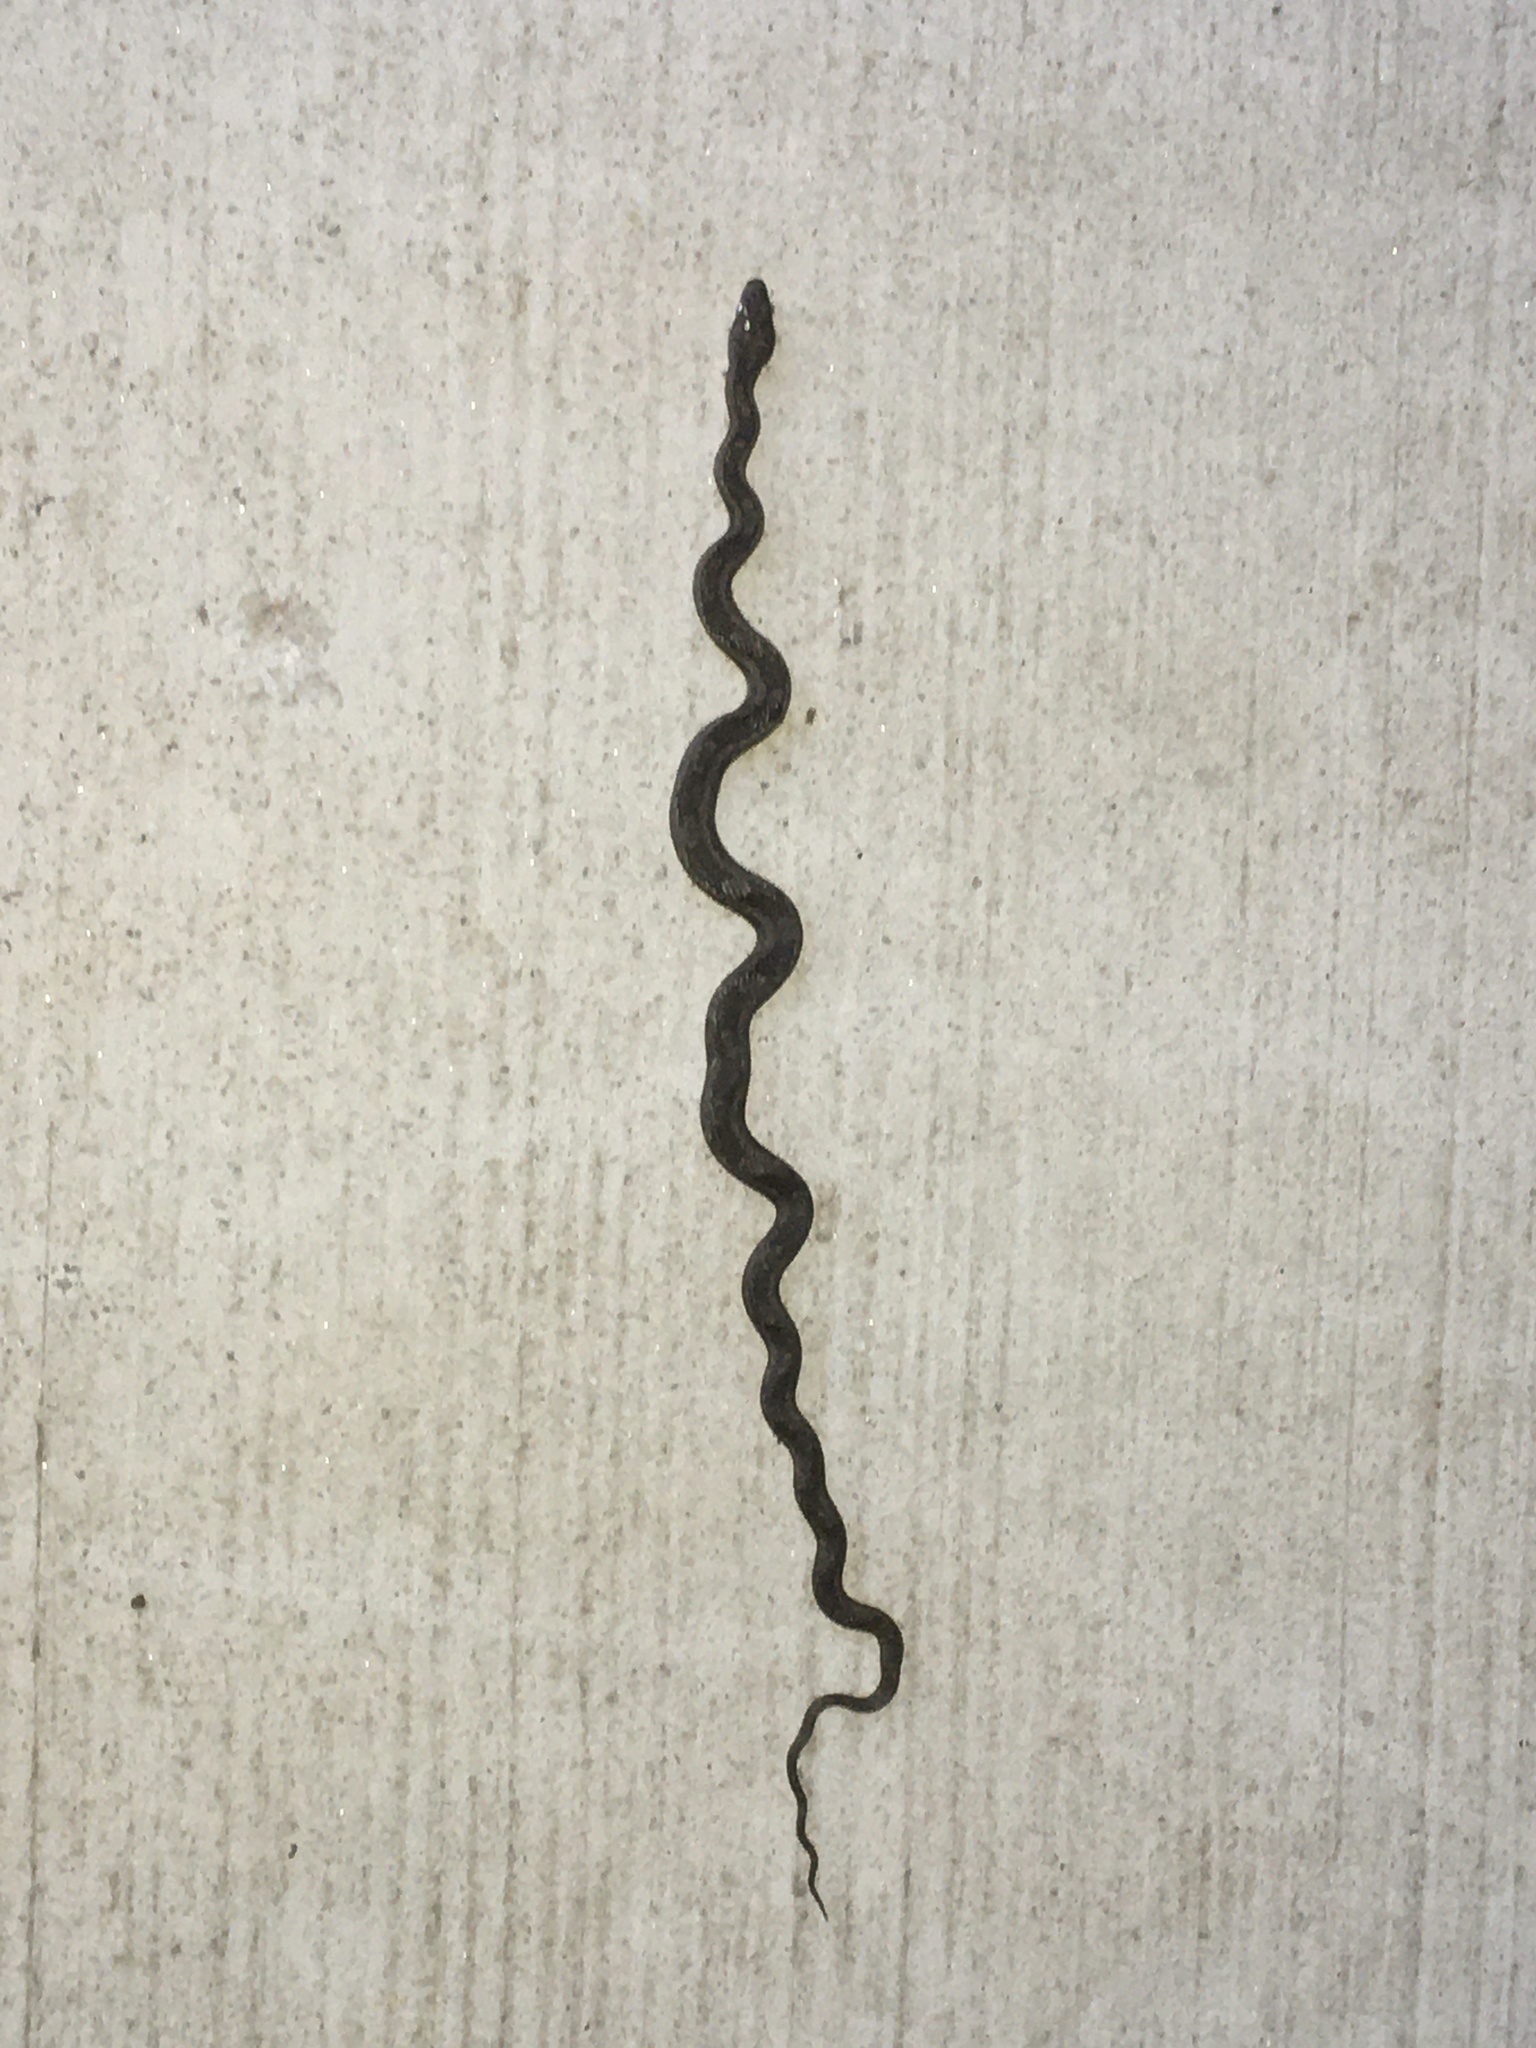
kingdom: Animalia
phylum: Chordata
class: Squamata
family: Colubridae
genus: Pantherophis
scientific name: Pantherophis alleghaniensis
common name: Eastern rat snake
